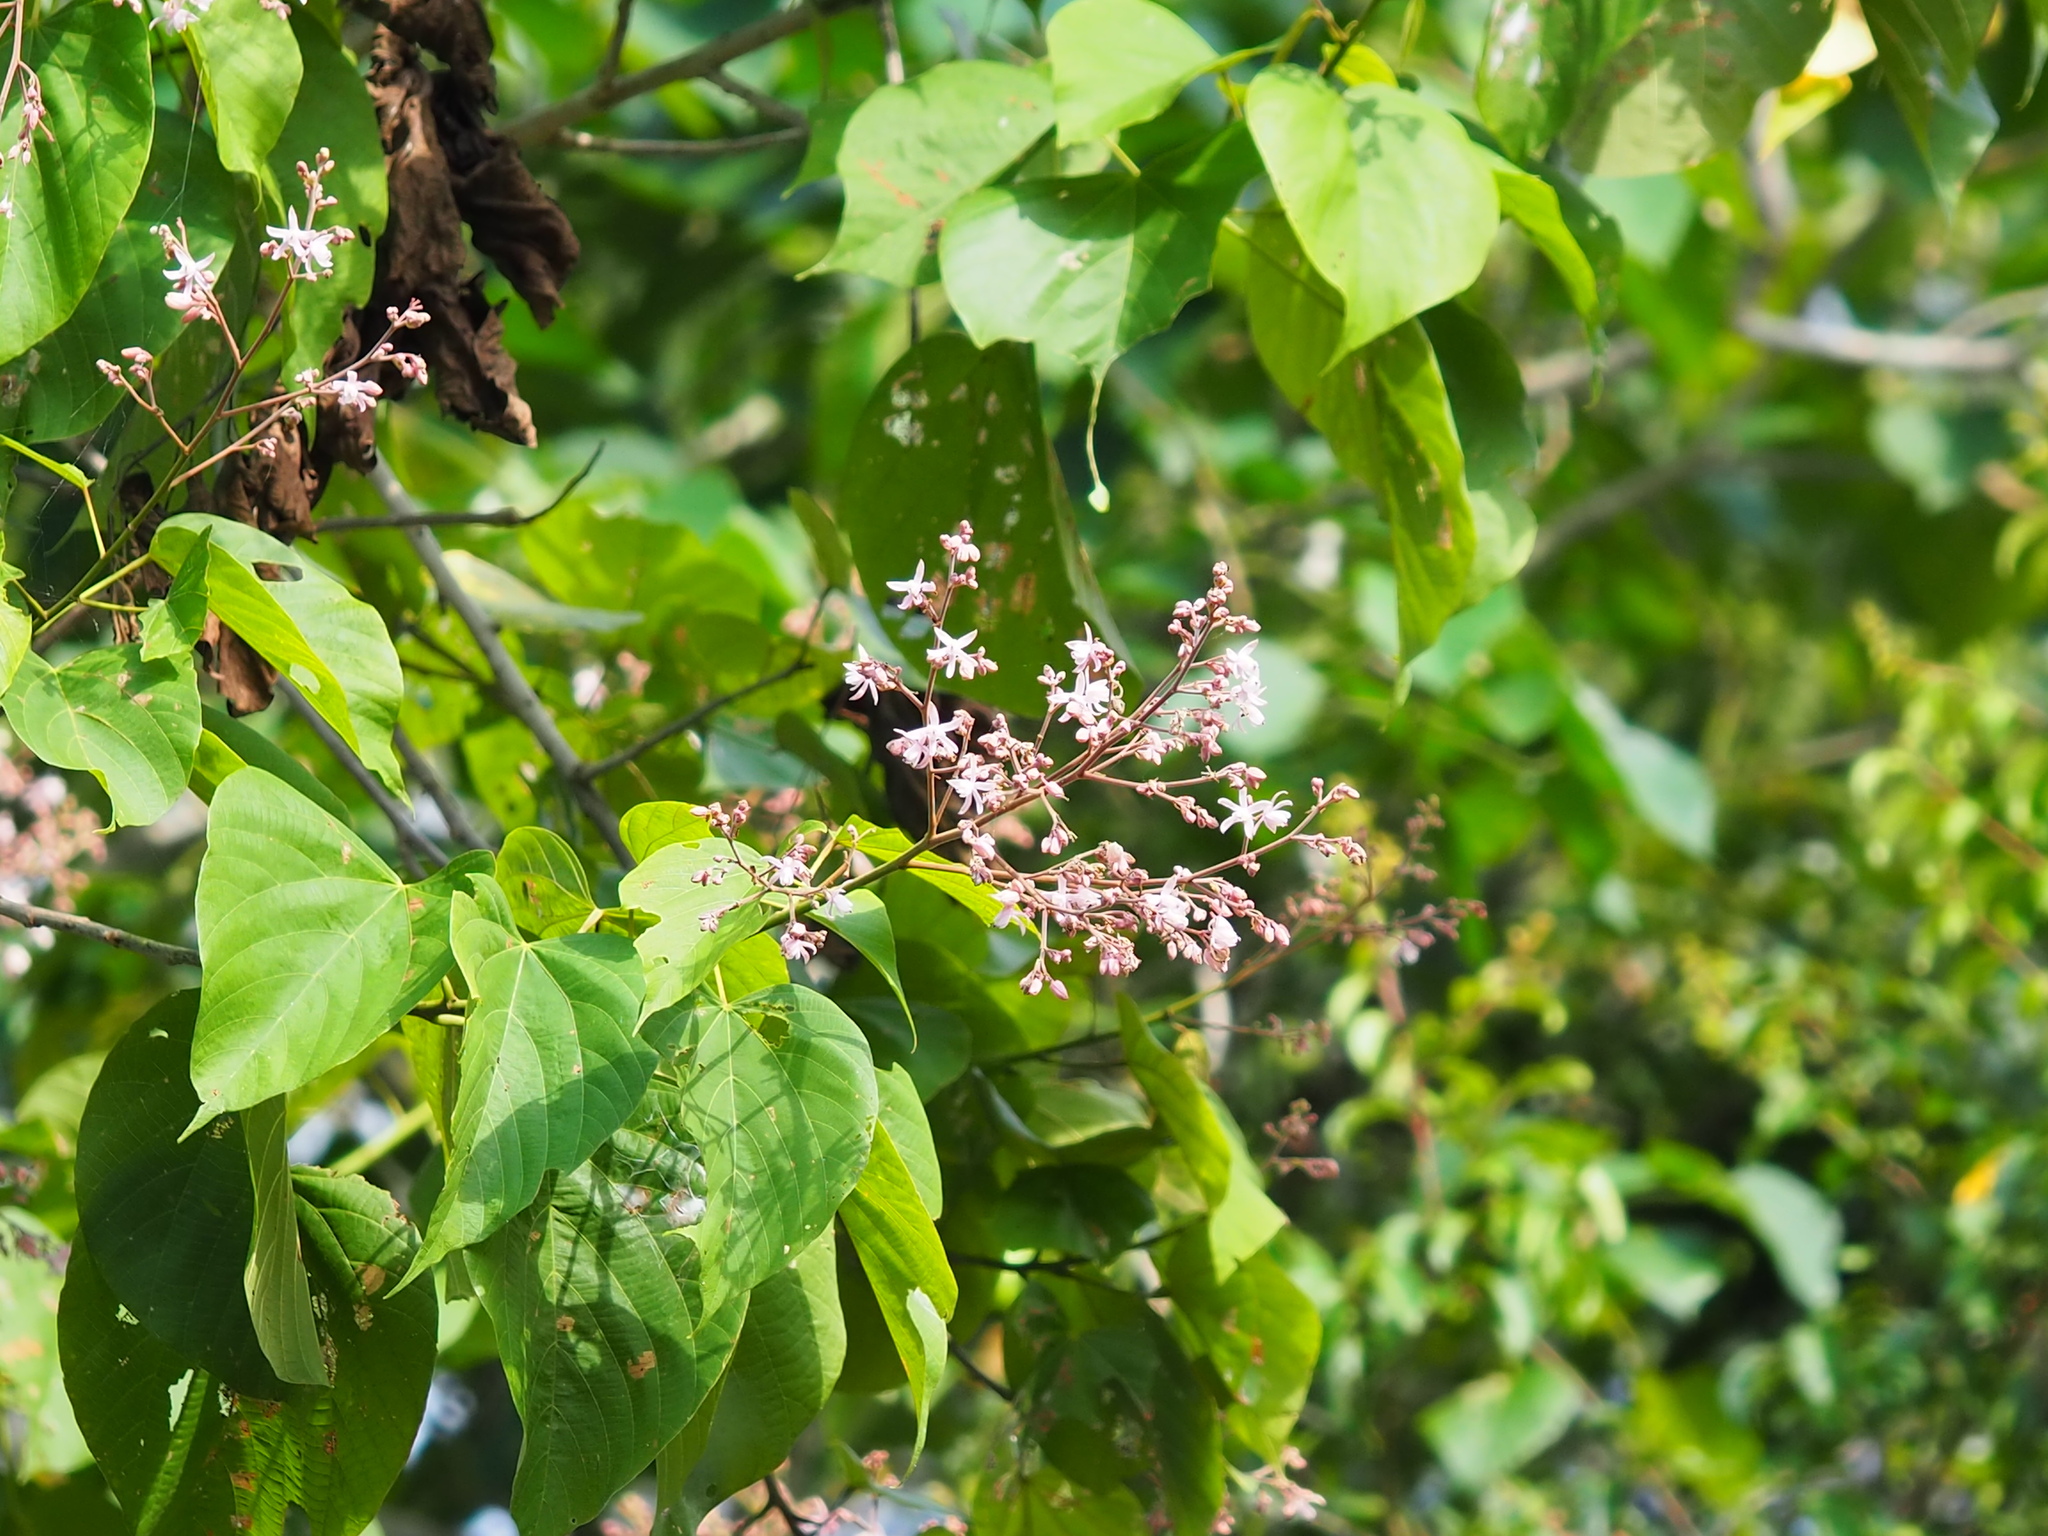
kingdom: Plantae
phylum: Tracheophyta
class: Magnoliopsida
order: Malvales
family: Malvaceae
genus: Kleinhovia
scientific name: Kleinhovia hospita
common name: Guest-tree
